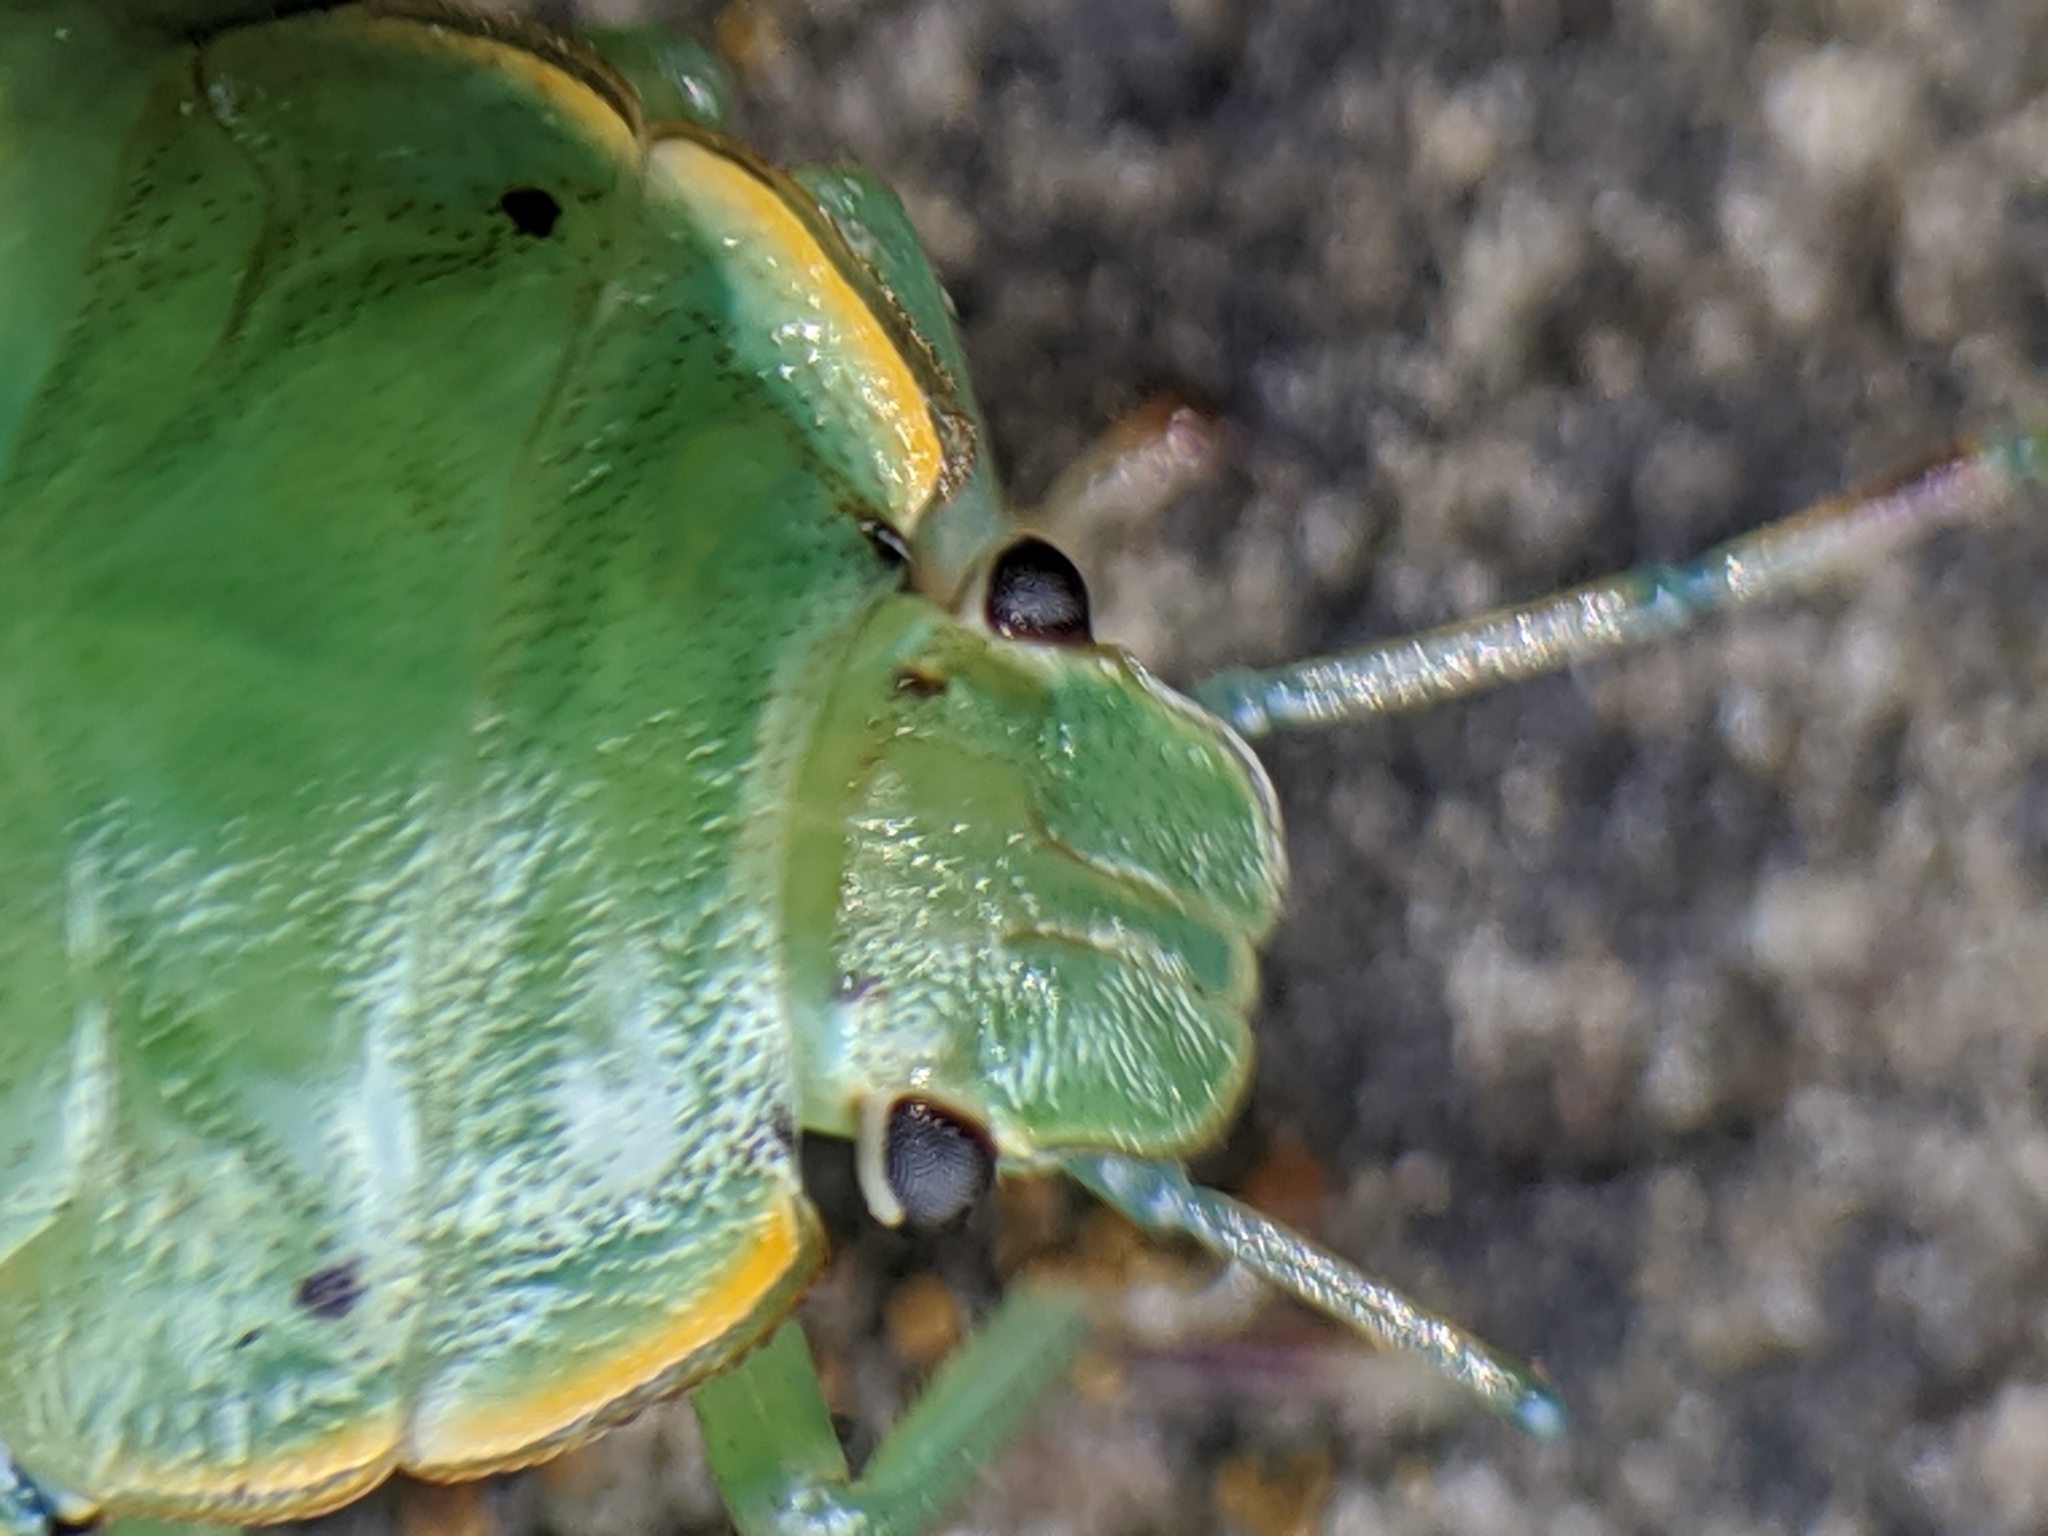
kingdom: Animalia
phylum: Arthropoda
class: Insecta
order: Hemiptera
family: Pentatomidae
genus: Chinavia
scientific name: Chinavia hilaris
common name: Green stink bug
